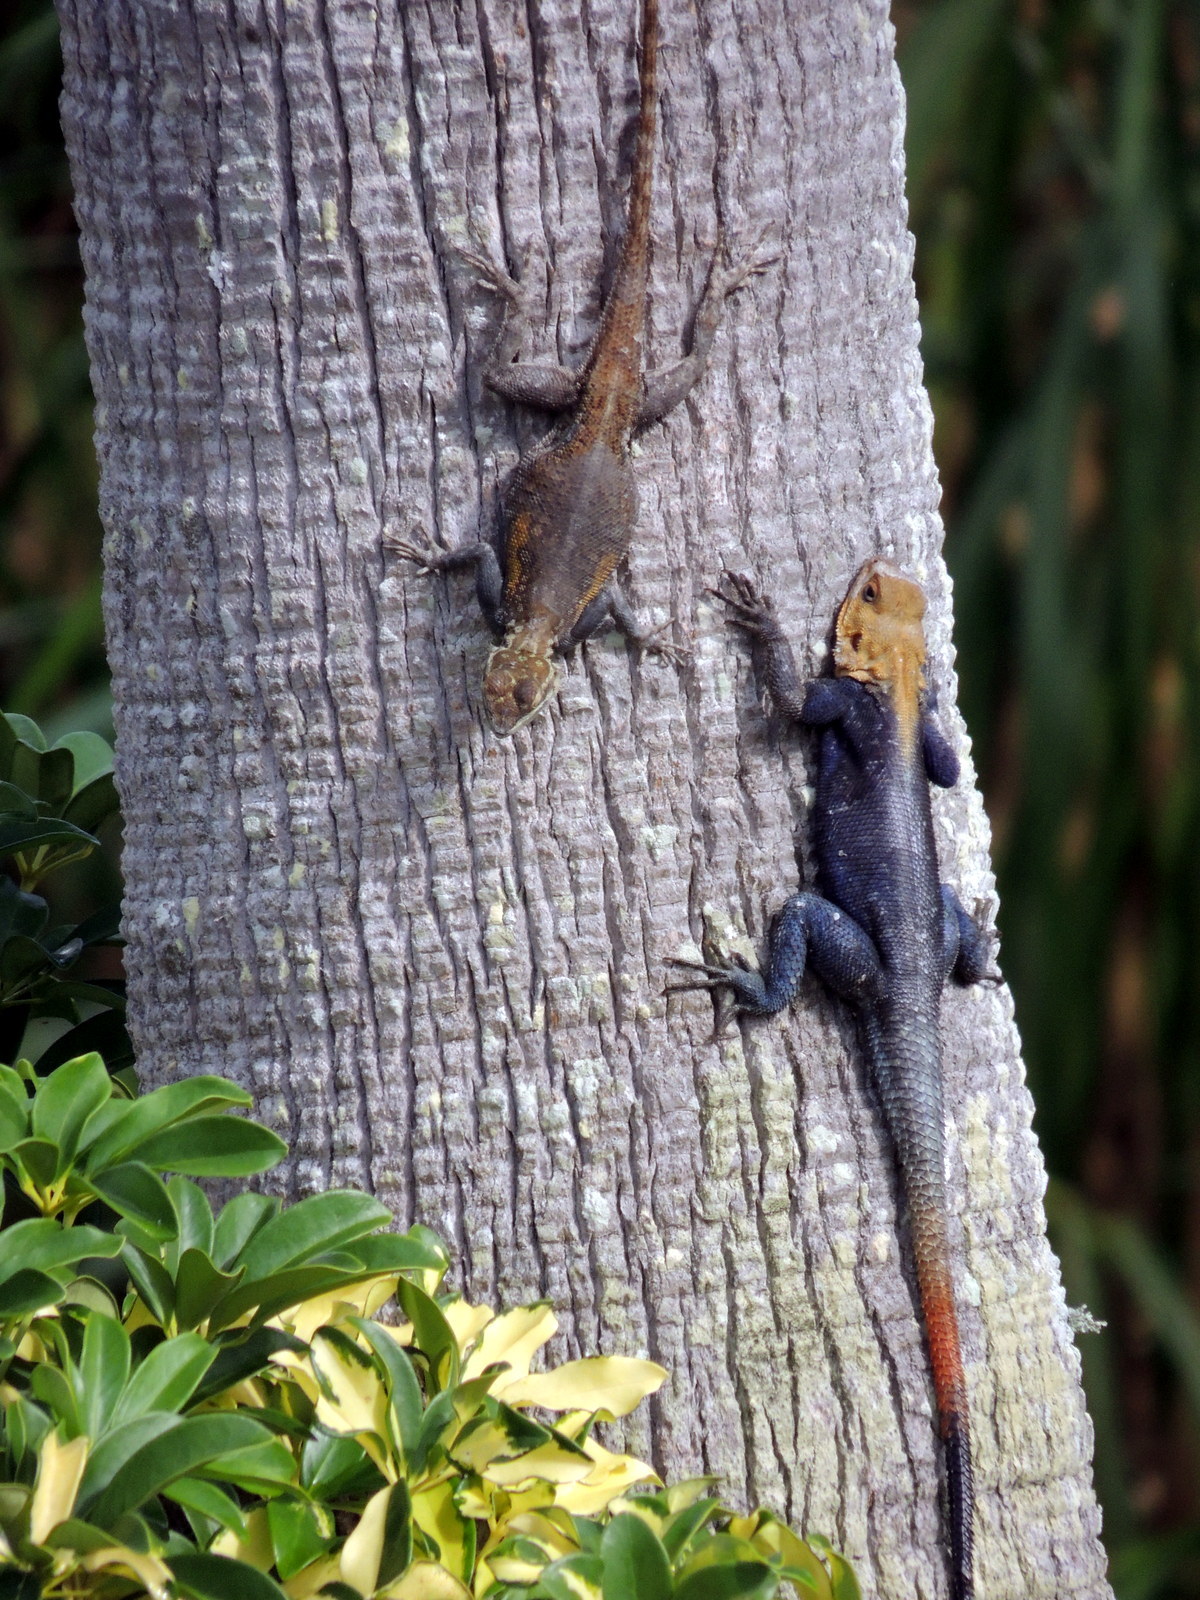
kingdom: Animalia
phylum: Chordata
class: Squamata
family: Agamidae
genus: Agama
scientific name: Agama picticauda
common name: Red-headed agama
